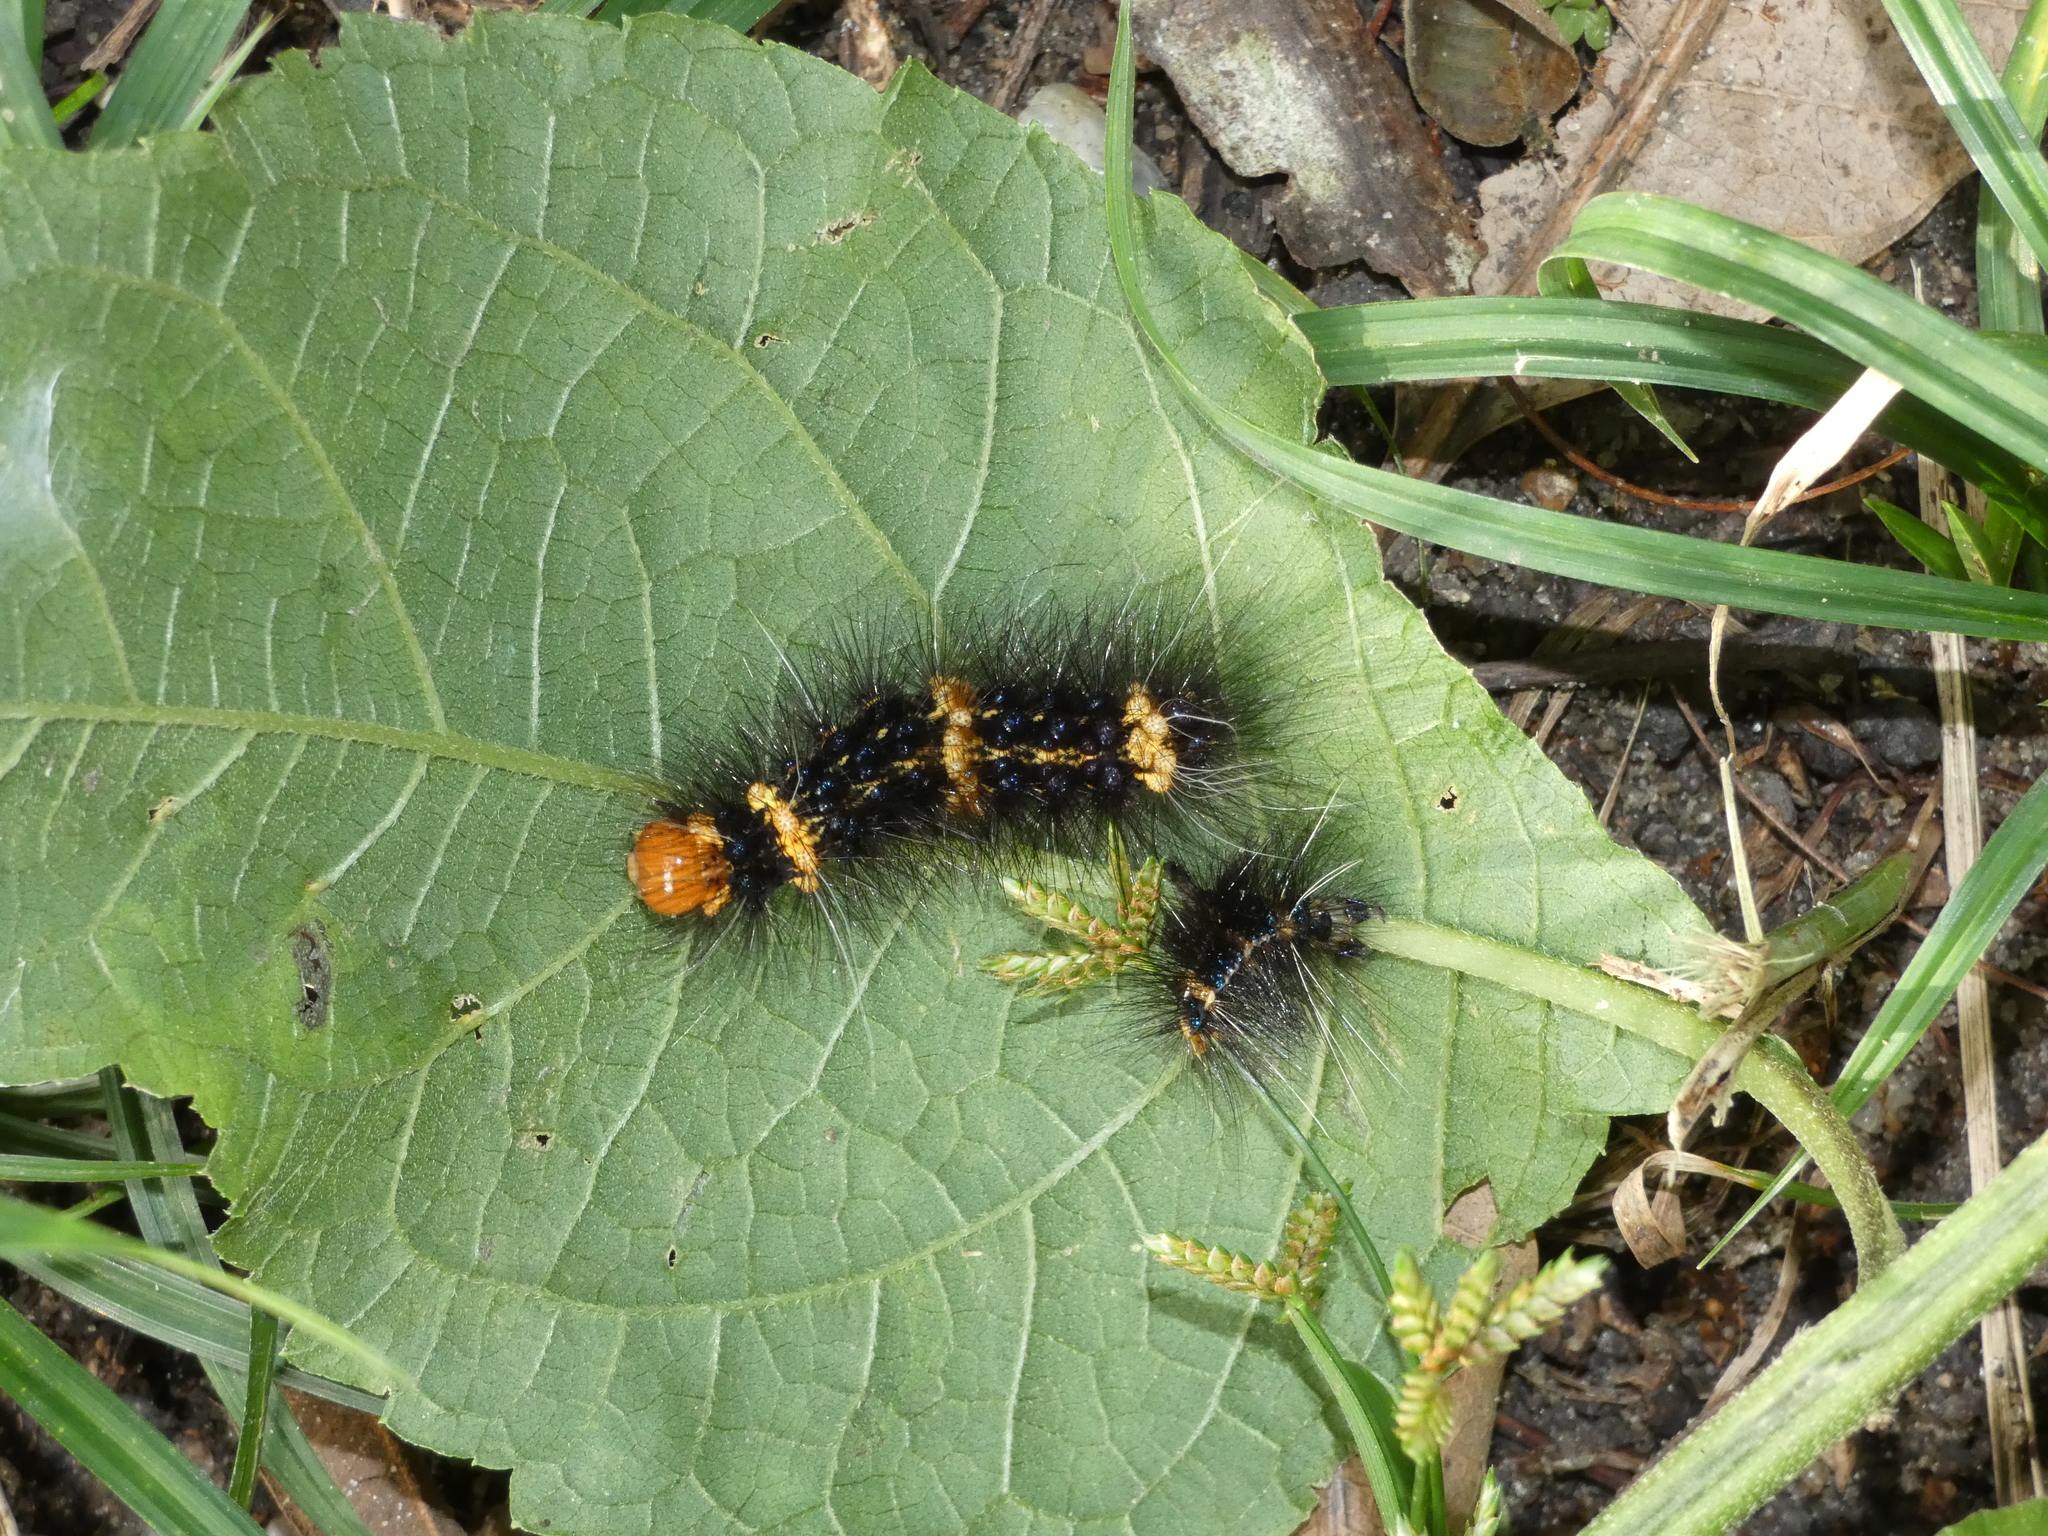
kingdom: Animalia
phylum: Arthropoda
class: Insecta
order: Lepidoptera
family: Erebidae
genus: Dysschema
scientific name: Dysschema tricolora
